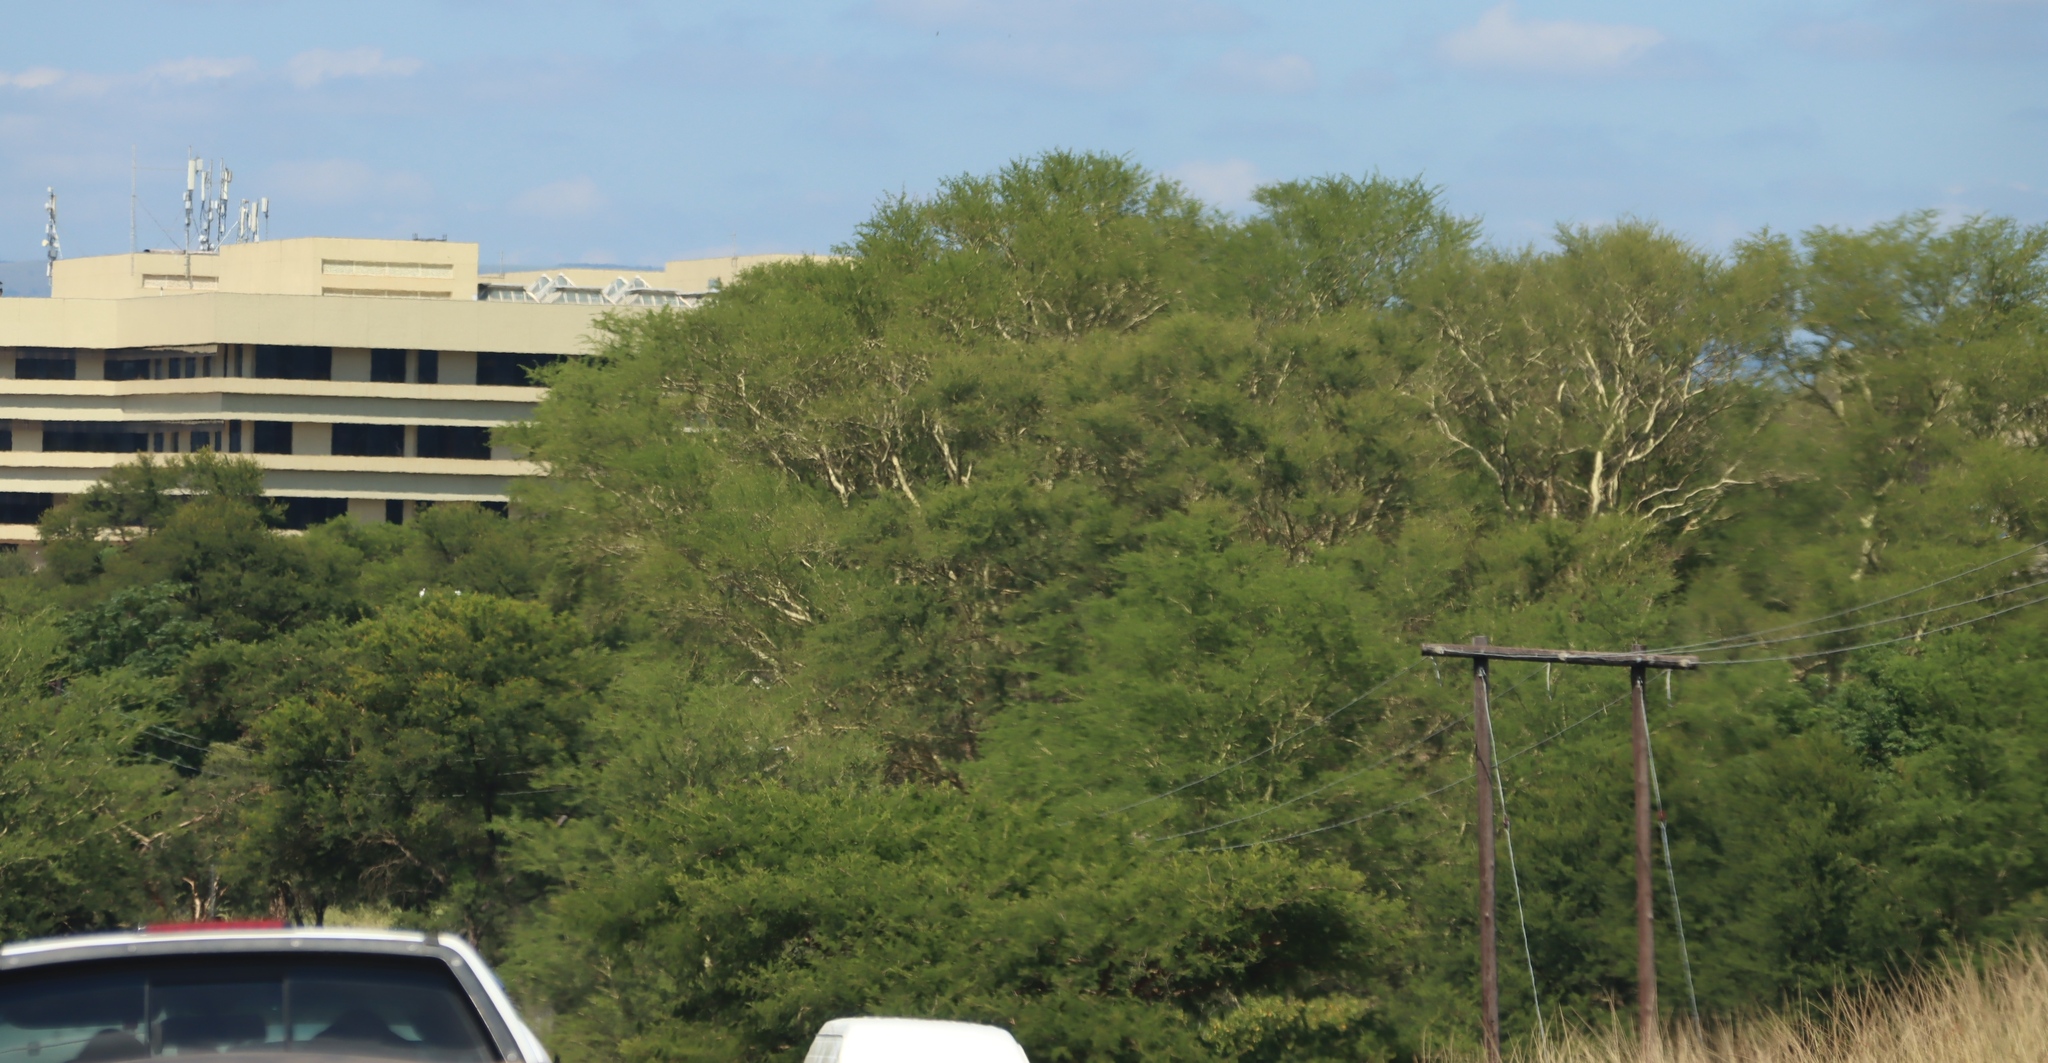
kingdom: Plantae
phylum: Tracheophyta
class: Magnoliopsida
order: Fabales
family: Fabaceae
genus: Vachellia
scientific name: Vachellia xanthophloea
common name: Fever tree
